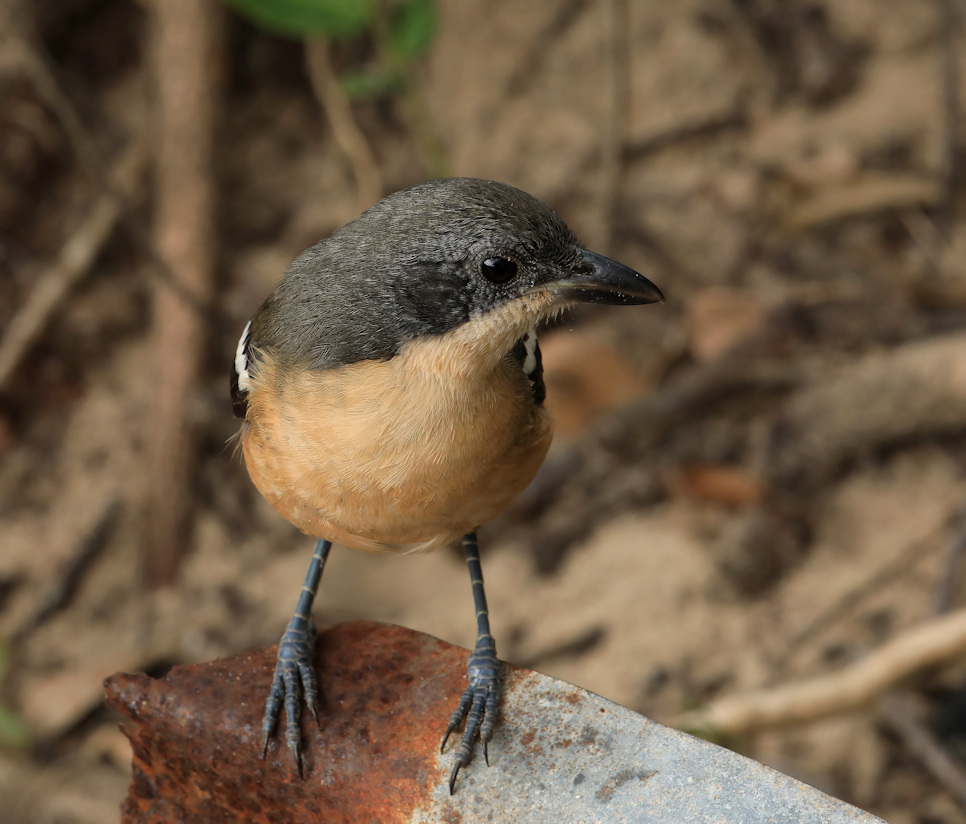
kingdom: Animalia
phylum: Chordata
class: Aves
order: Passeriformes
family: Malaconotidae
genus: Laniarius
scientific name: Laniarius ferrugineus
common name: Southern boubou
